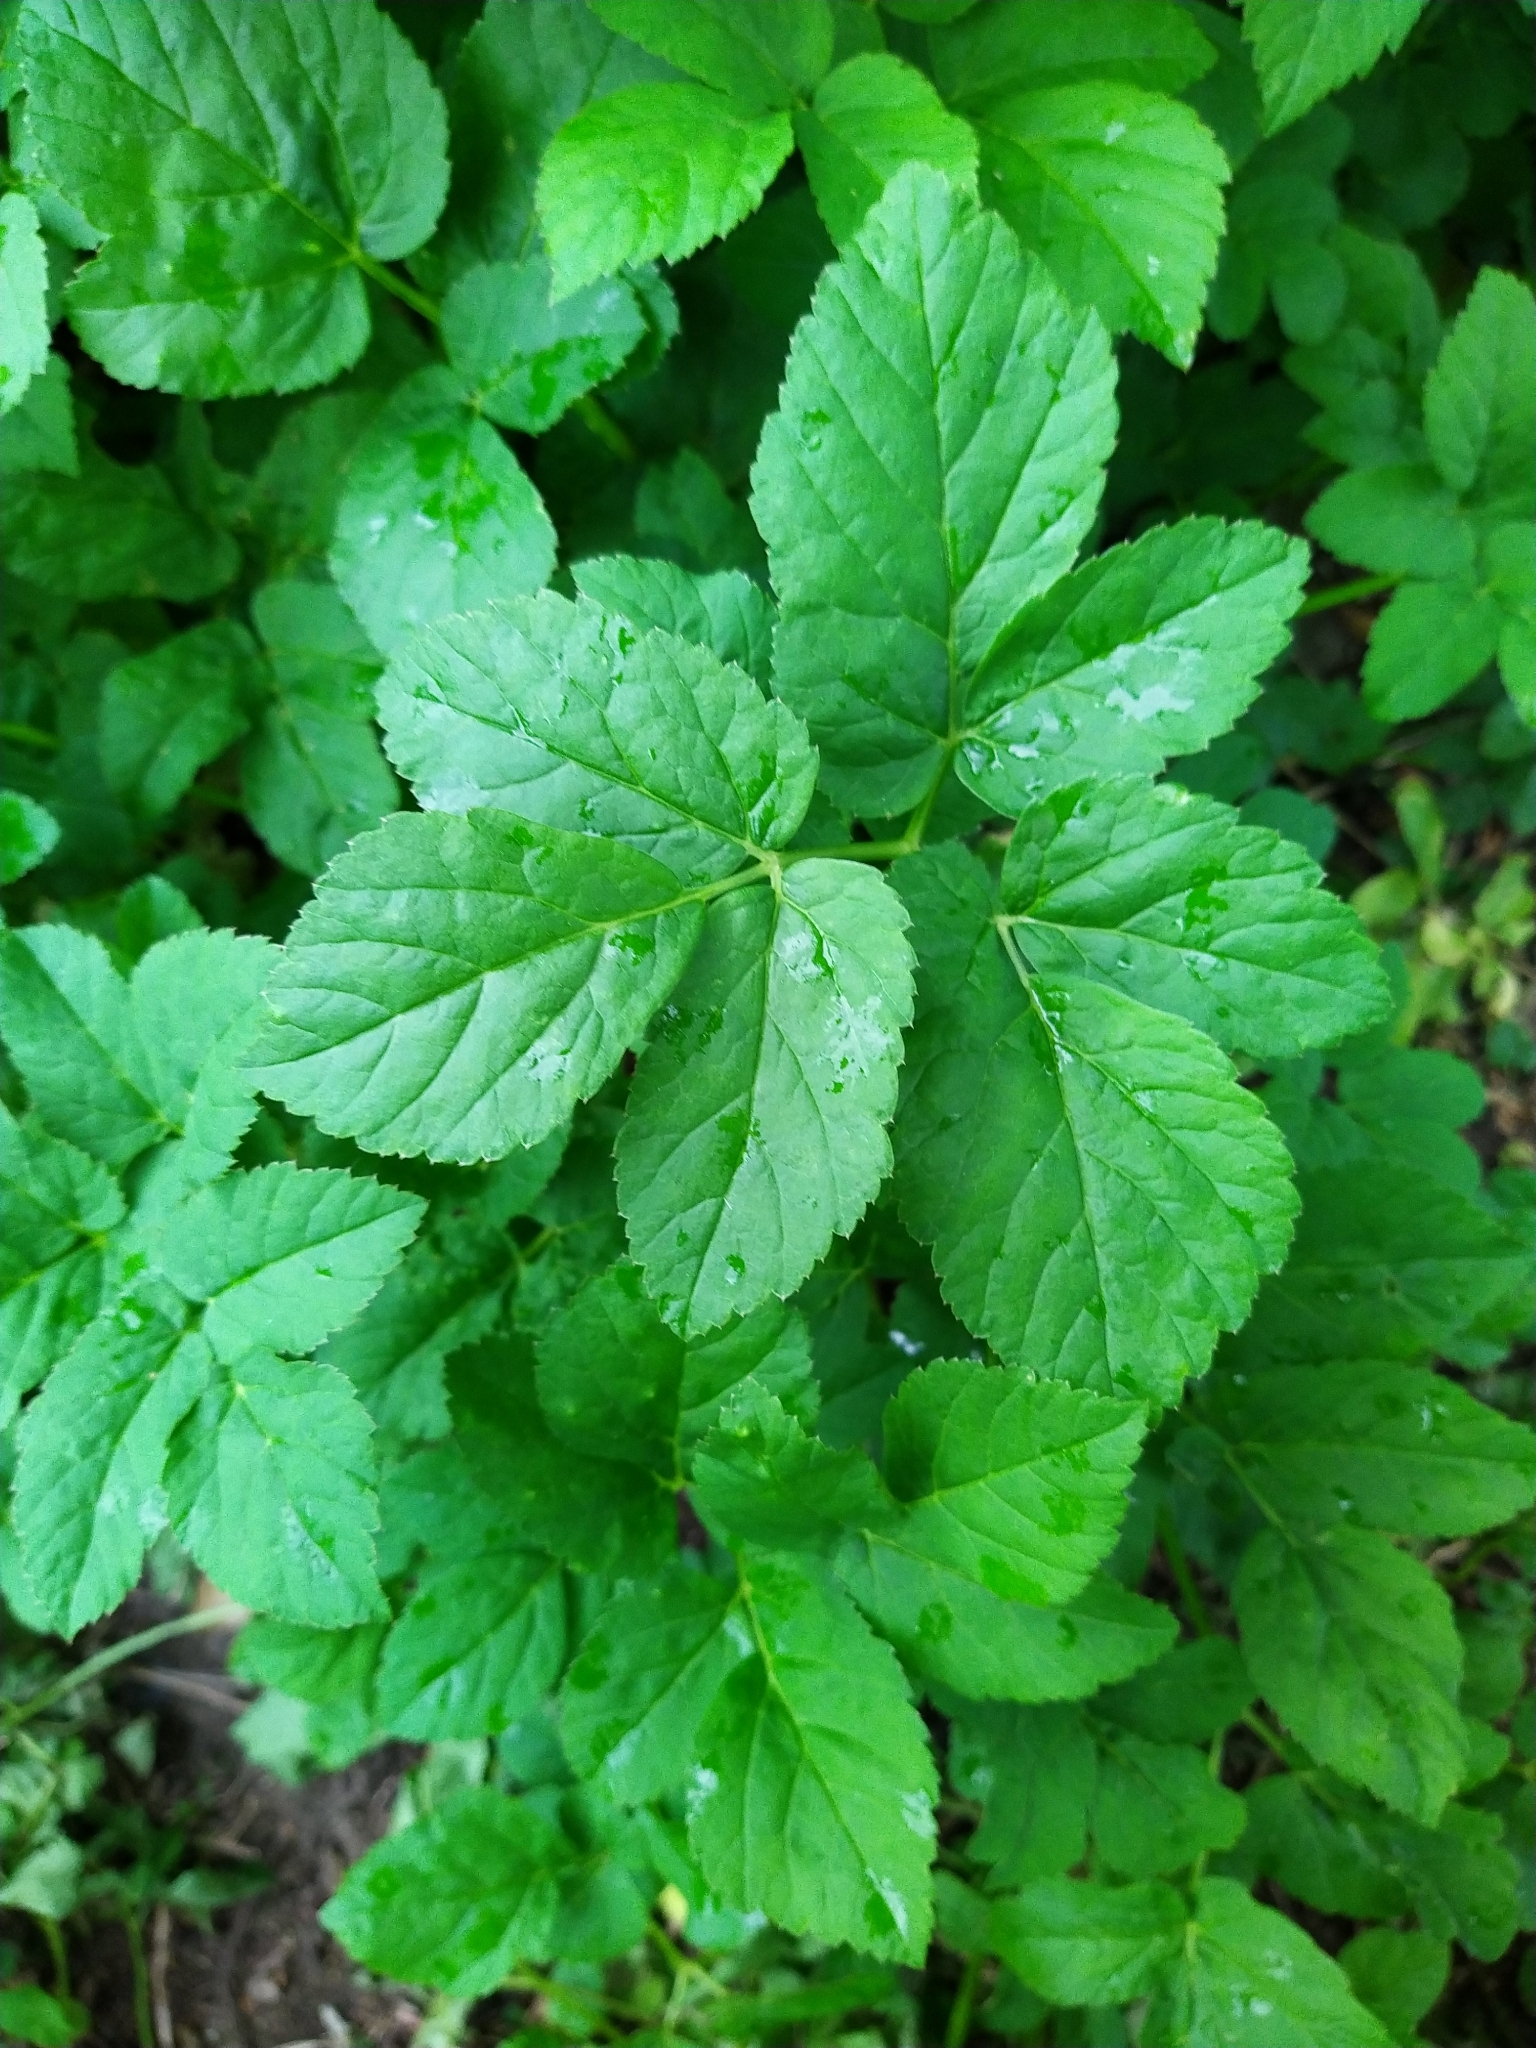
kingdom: Plantae
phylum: Tracheophyta
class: Magnoliopsida
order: Apiales
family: Apiaceae
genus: Aegopodium
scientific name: Aegopodium podagraria
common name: Ground-elder
